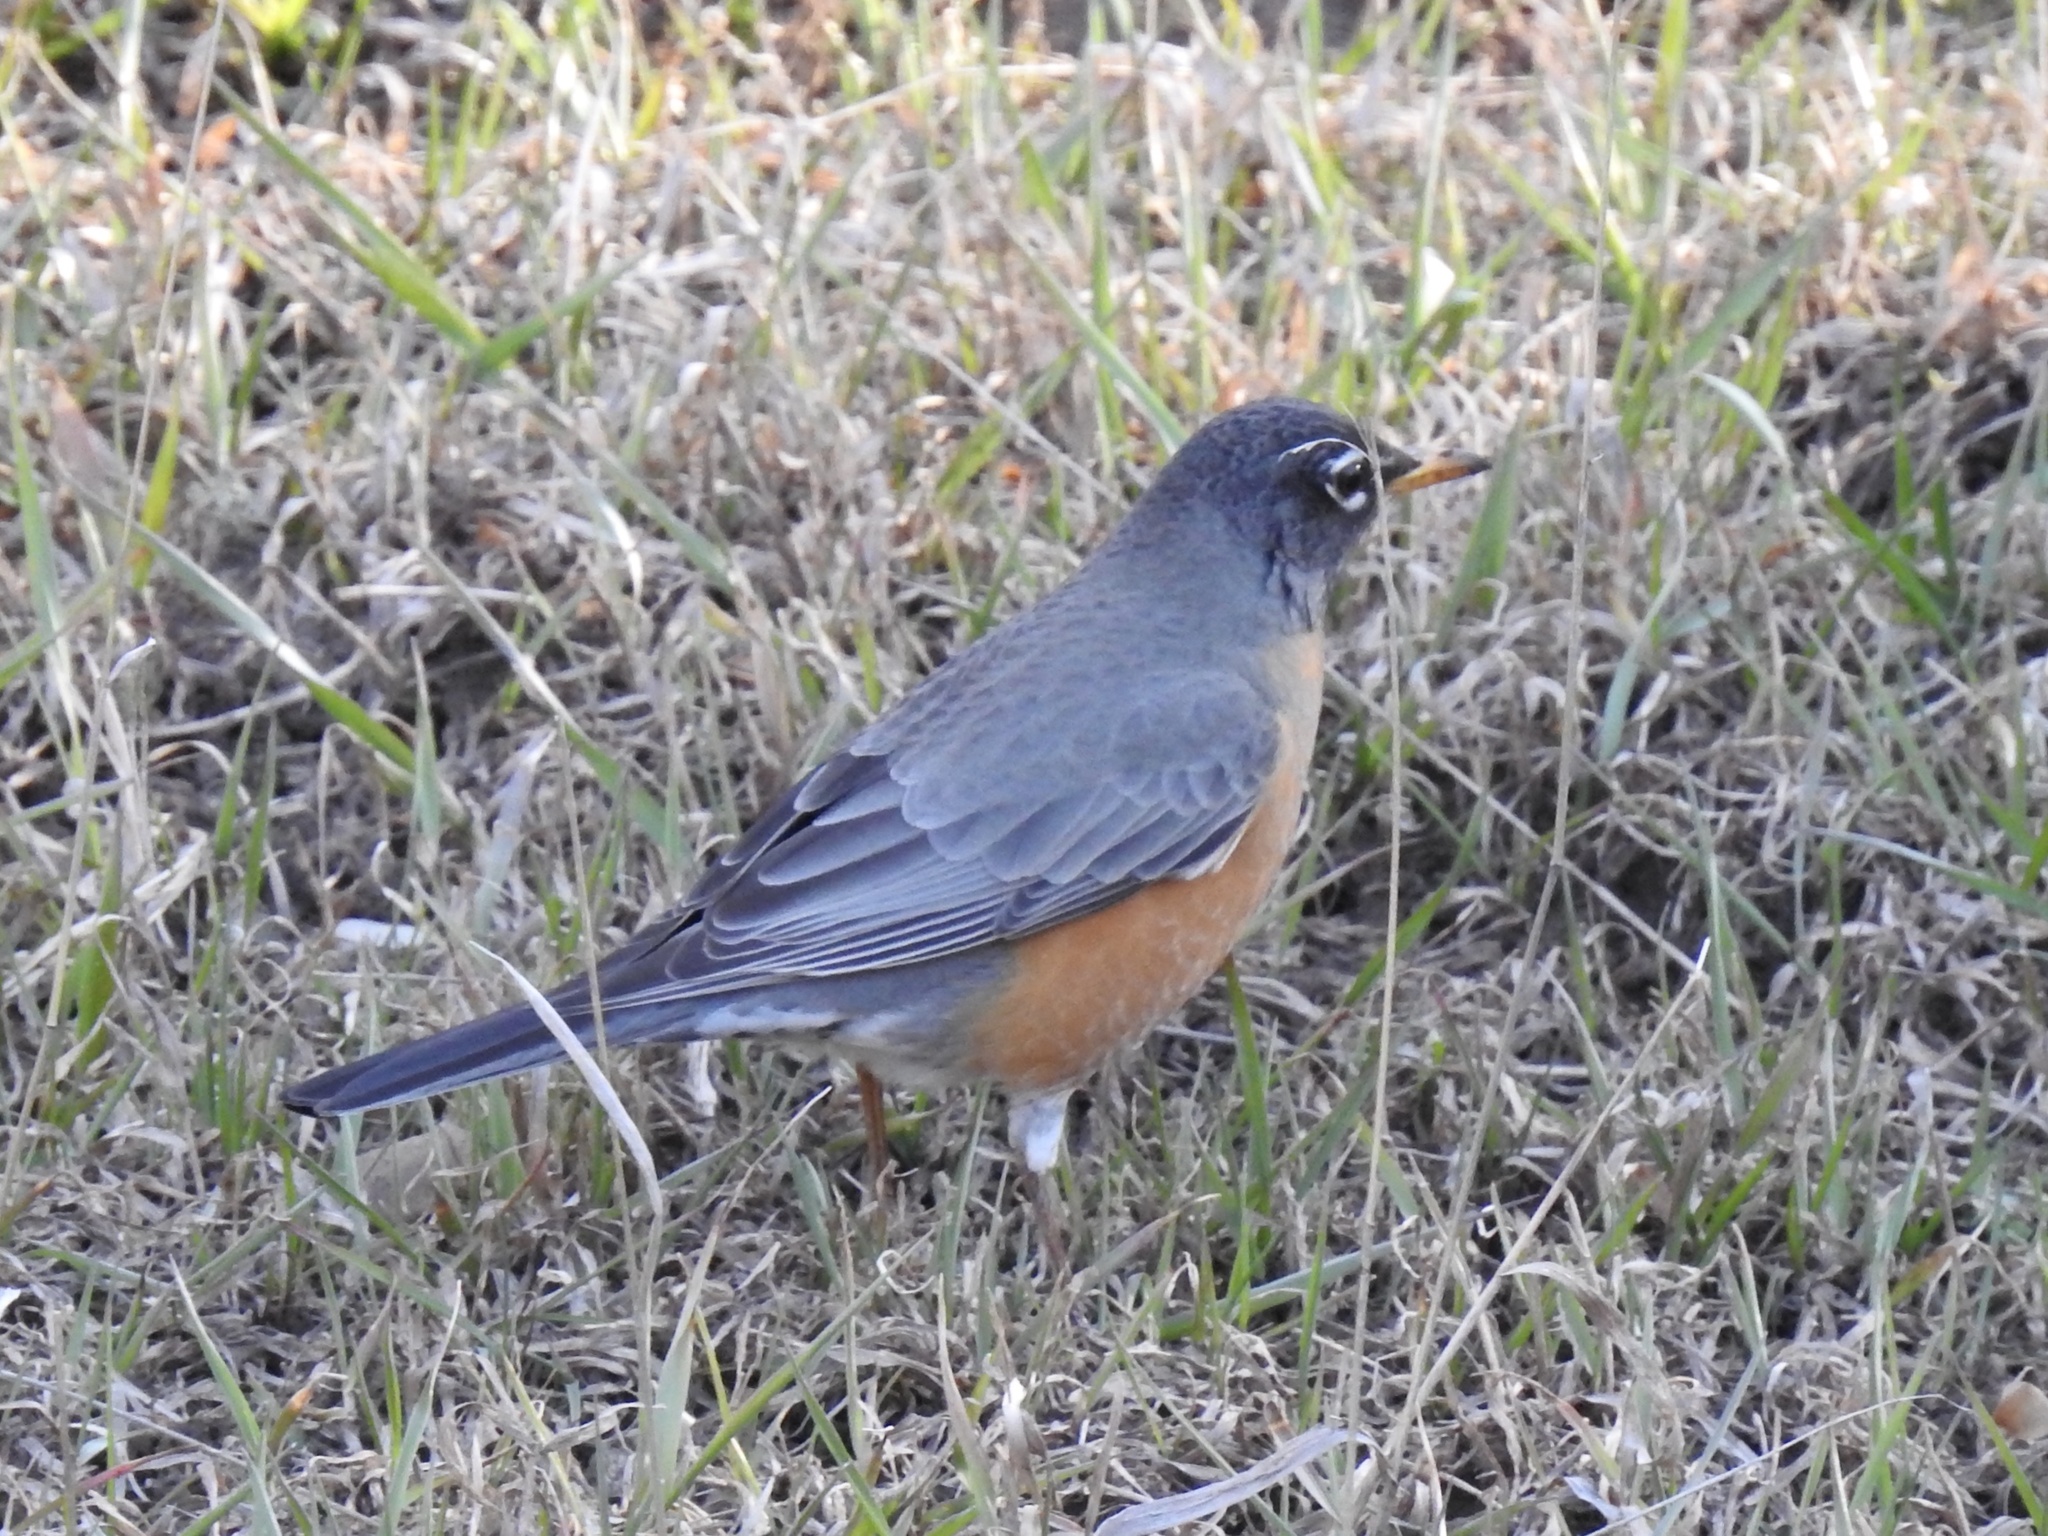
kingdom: Animalia
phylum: Chordata
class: Aves
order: Passeriformes
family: Turdidae
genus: Turdus
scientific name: Turdus migratorius
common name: American robin
